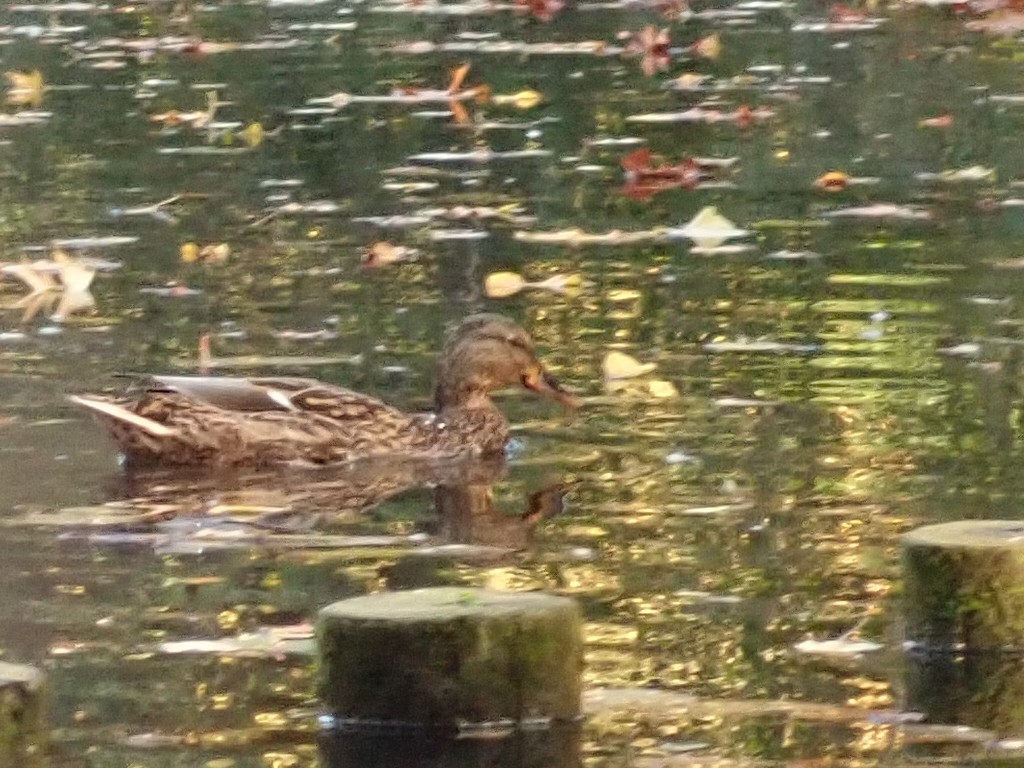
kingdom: Animalia
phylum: Chordata
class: Aves
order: Anseriformes
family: Anatidae
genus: Anas
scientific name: Anas platyrhynchos
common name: Mallard
